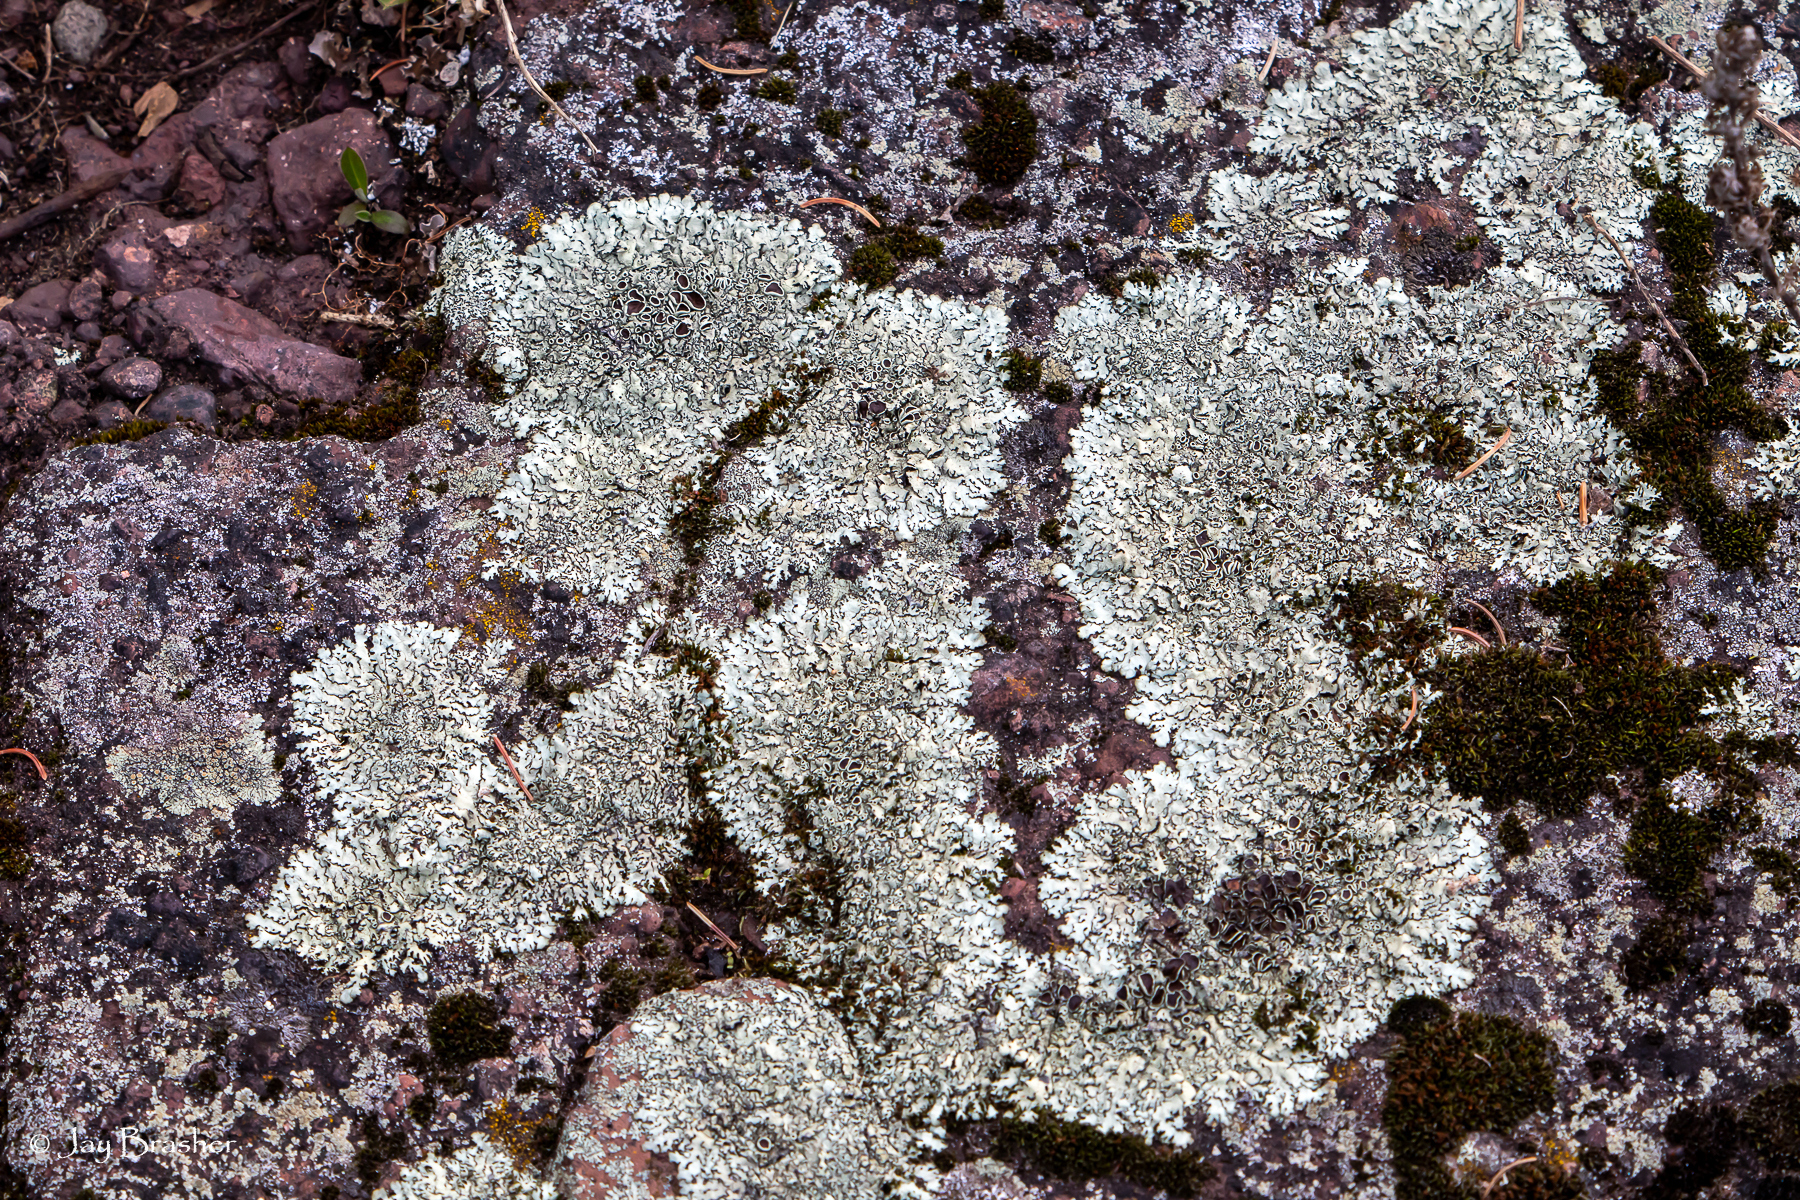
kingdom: Fungi
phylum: Ascomycota
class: Lecanoromycetes
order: Lecanorales
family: Parmeliaceae
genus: Xanthoparmelia
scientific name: Xanthoparmelia cumberlandia
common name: Cumberland rock shield
